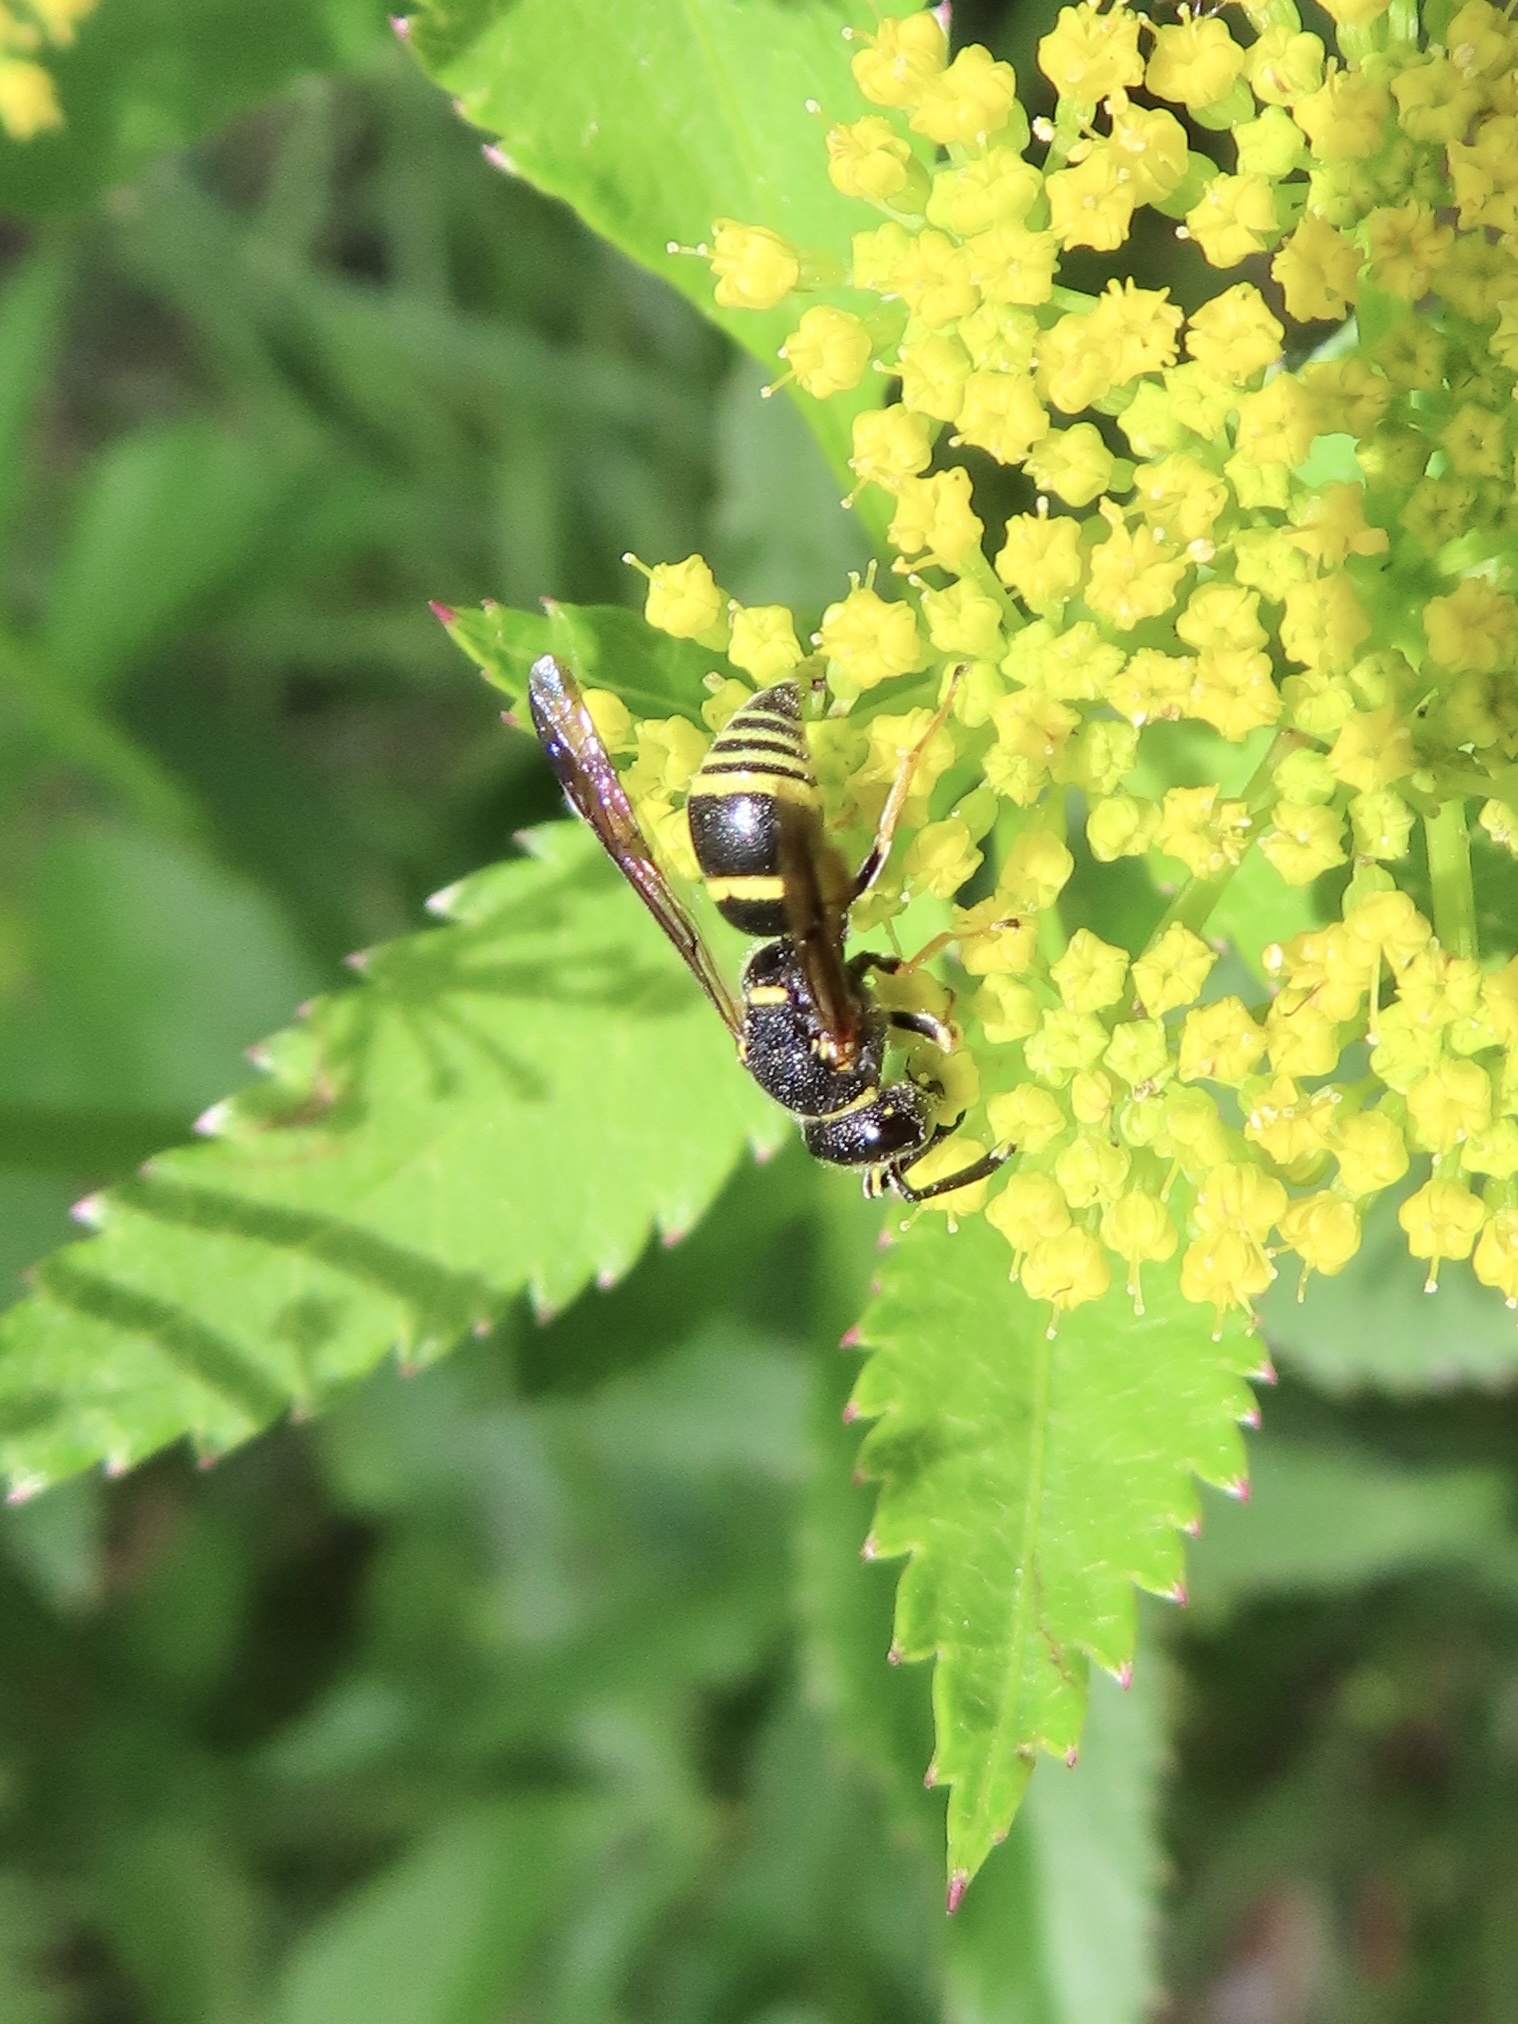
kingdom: Animalia
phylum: Arthropoda
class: Insecta
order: Hymenoptera
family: Eumenidae
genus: Euodynerus
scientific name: Euodynerus foraminatus
